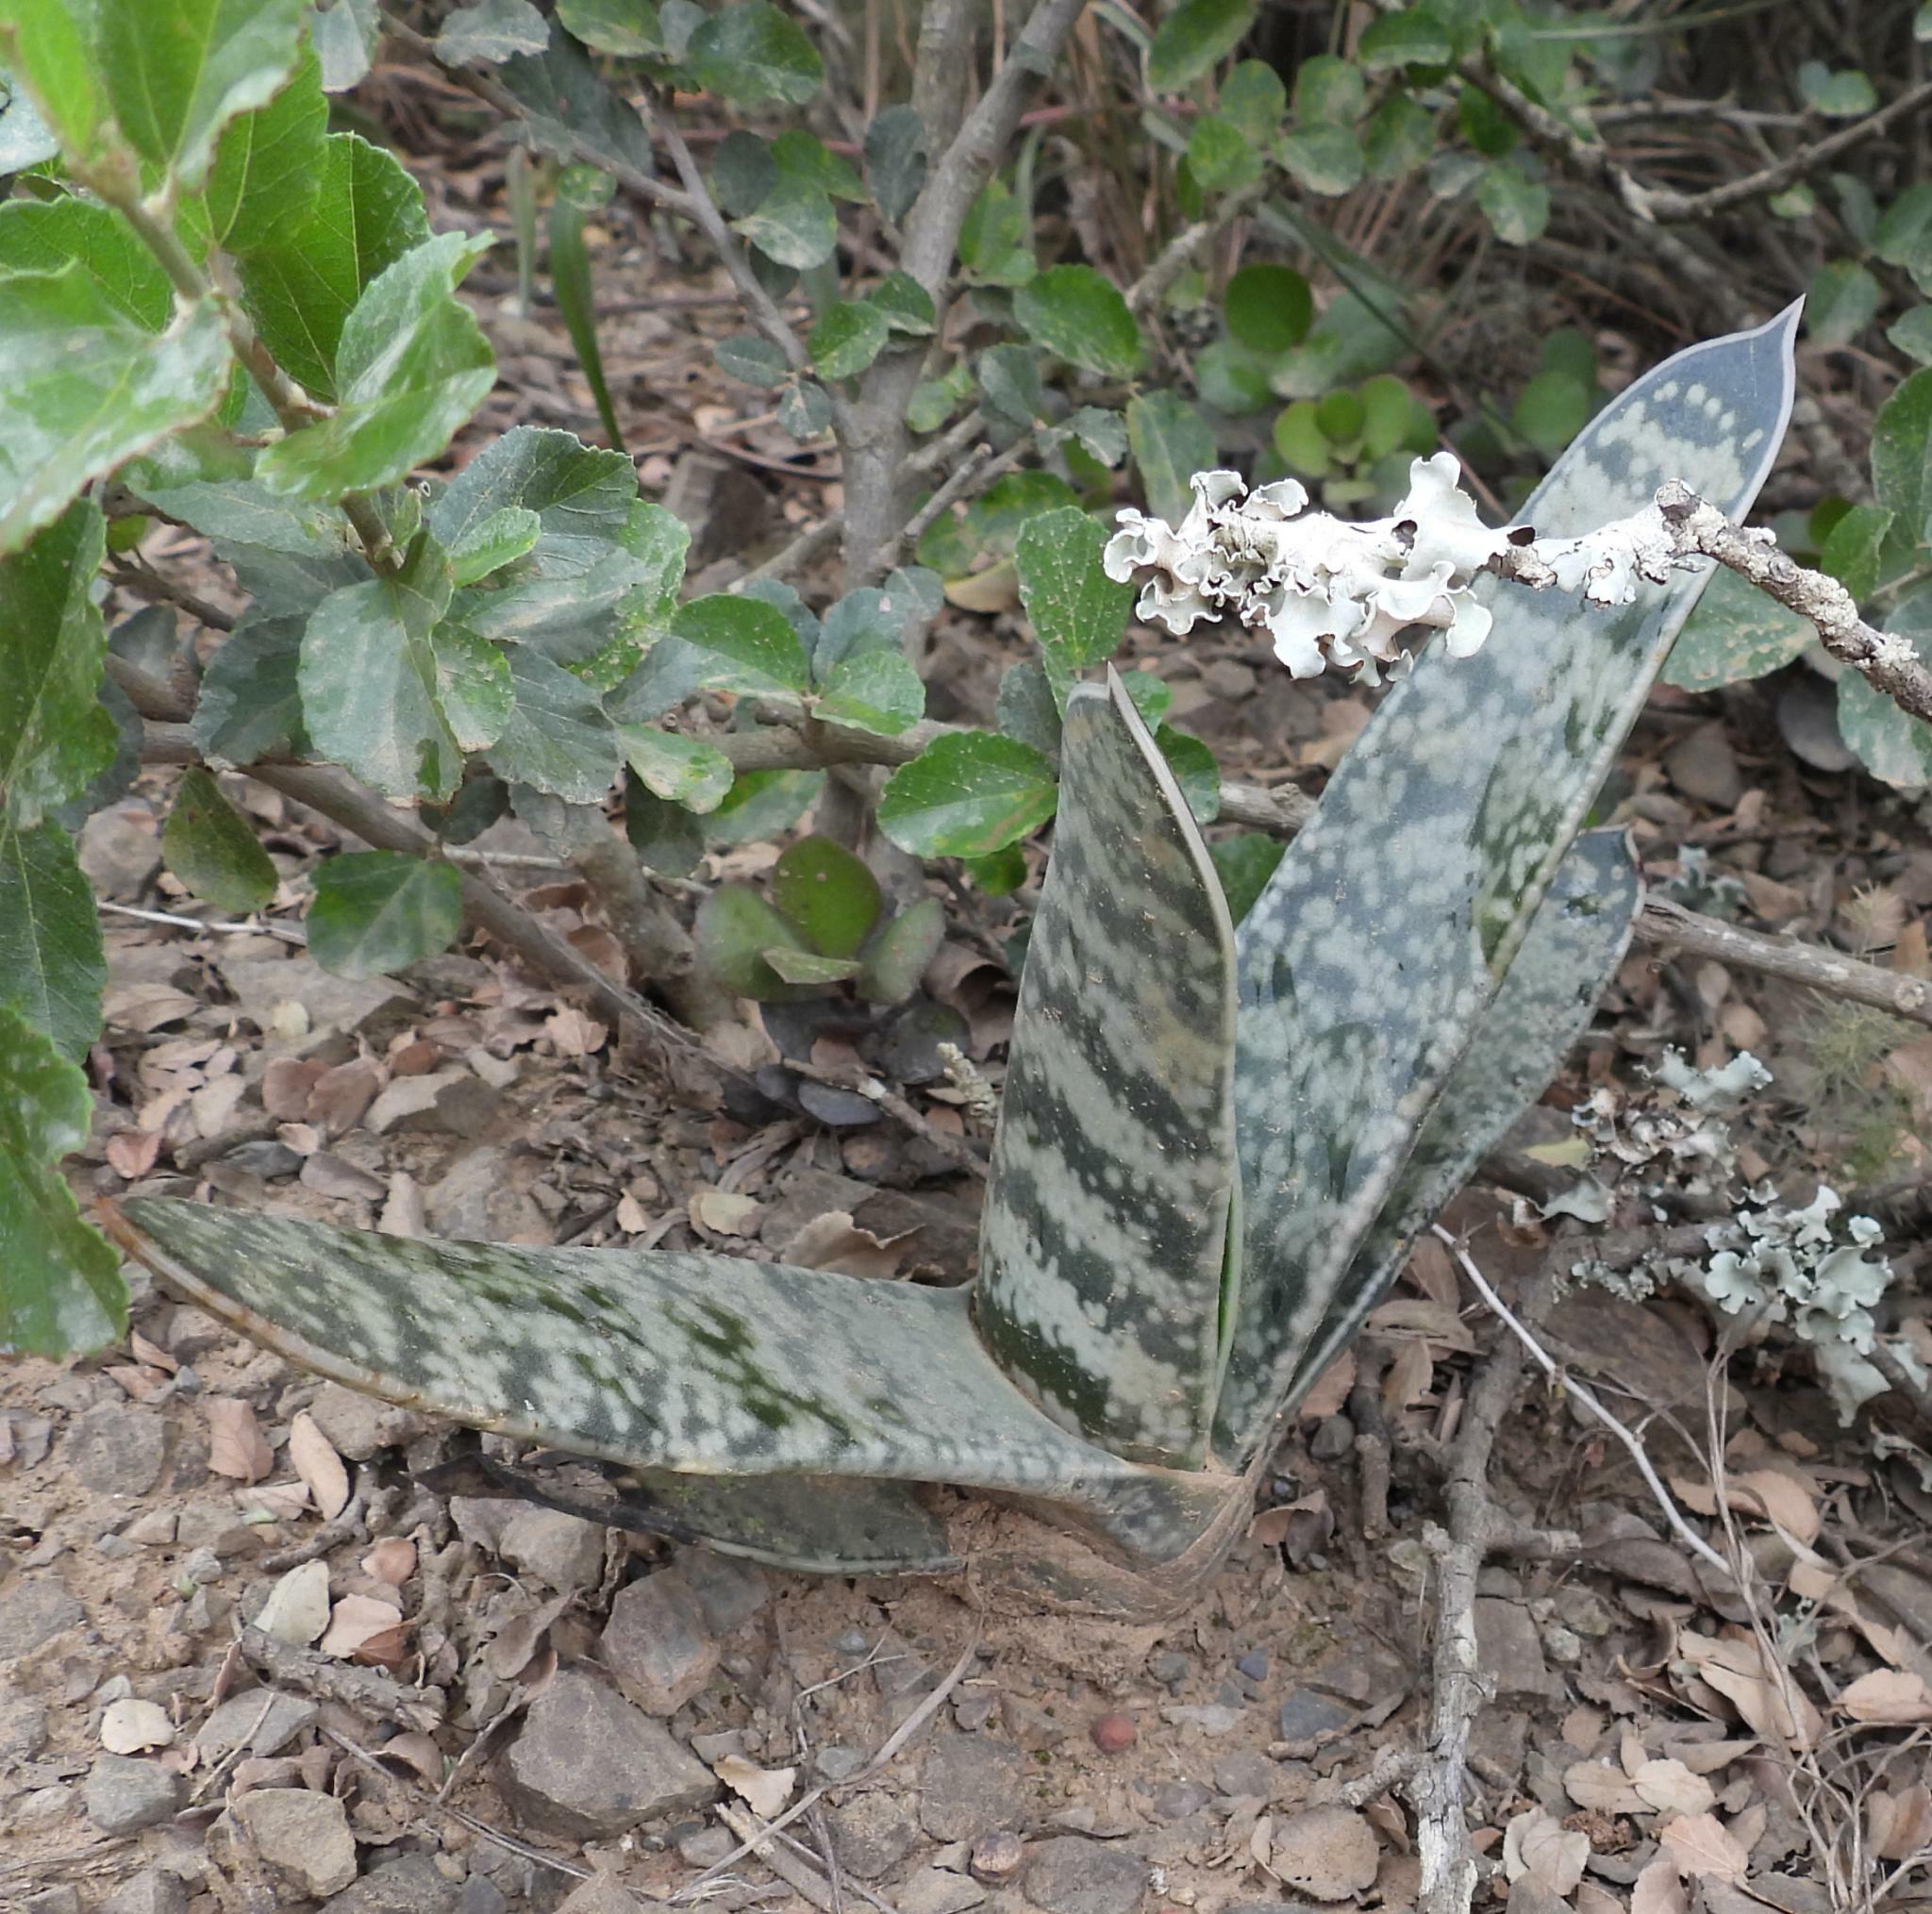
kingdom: Plantae
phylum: Tracheophyta
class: Liliopsida
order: Asparagales
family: Asphodelaceae
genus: Gasteria
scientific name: Gasteria obliqua
